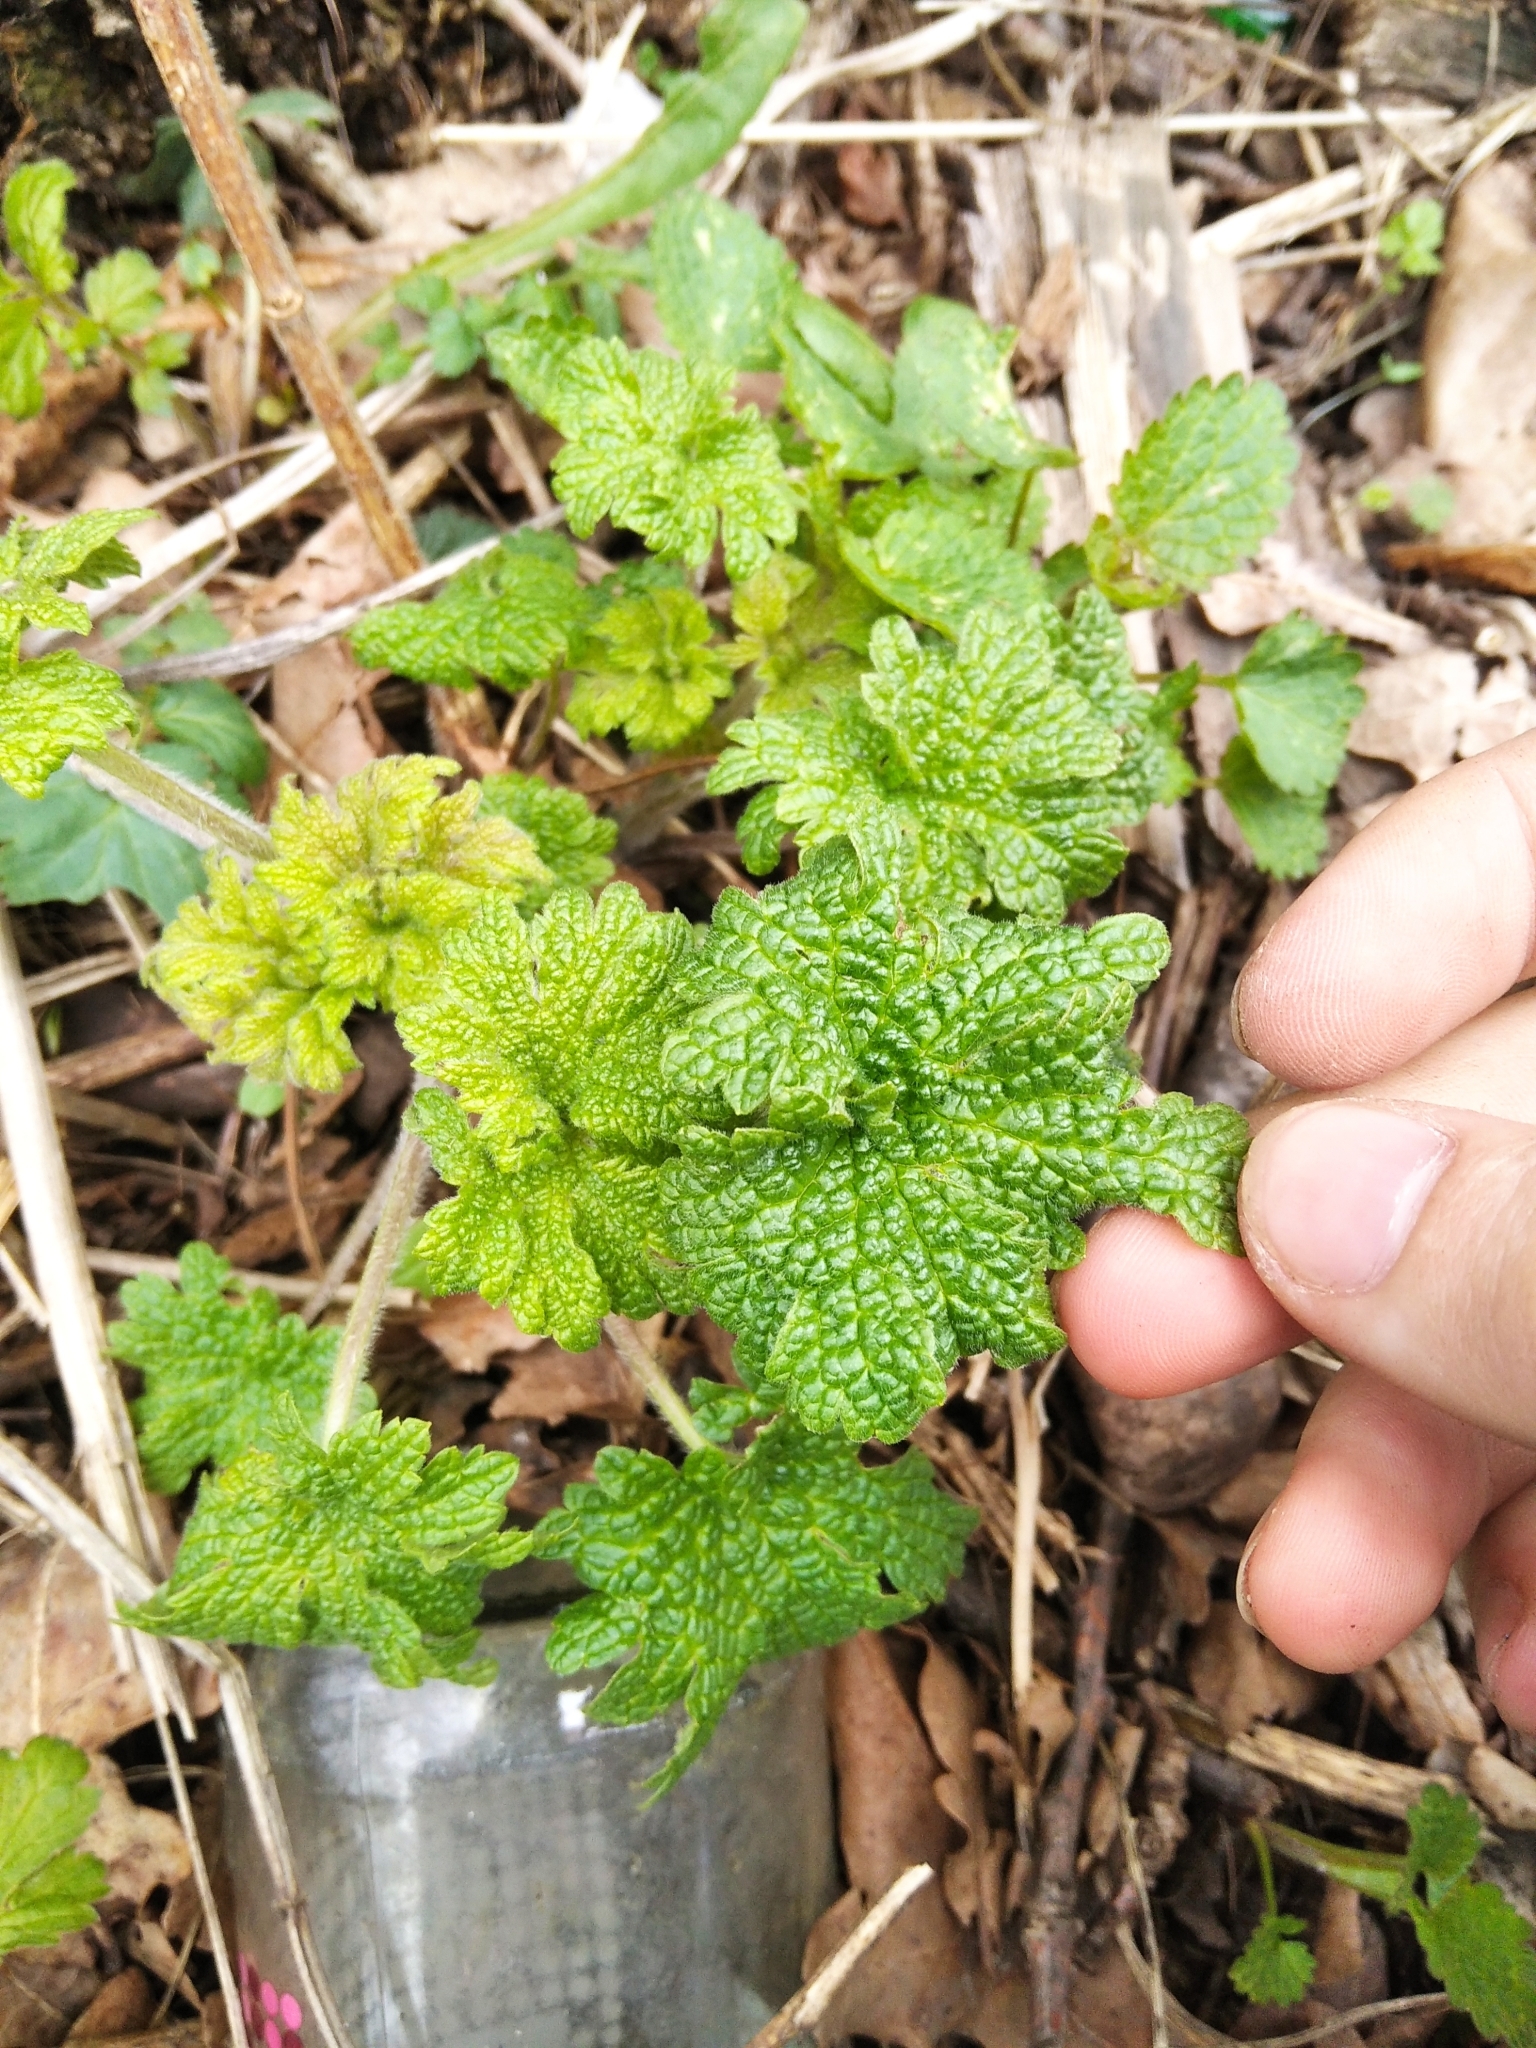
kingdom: Plantae
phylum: Tracheophyta
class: Magnoliopsida
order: Lamiales
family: Lamiaceae
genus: Leonurus
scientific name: Leonurus quinquelobatus
